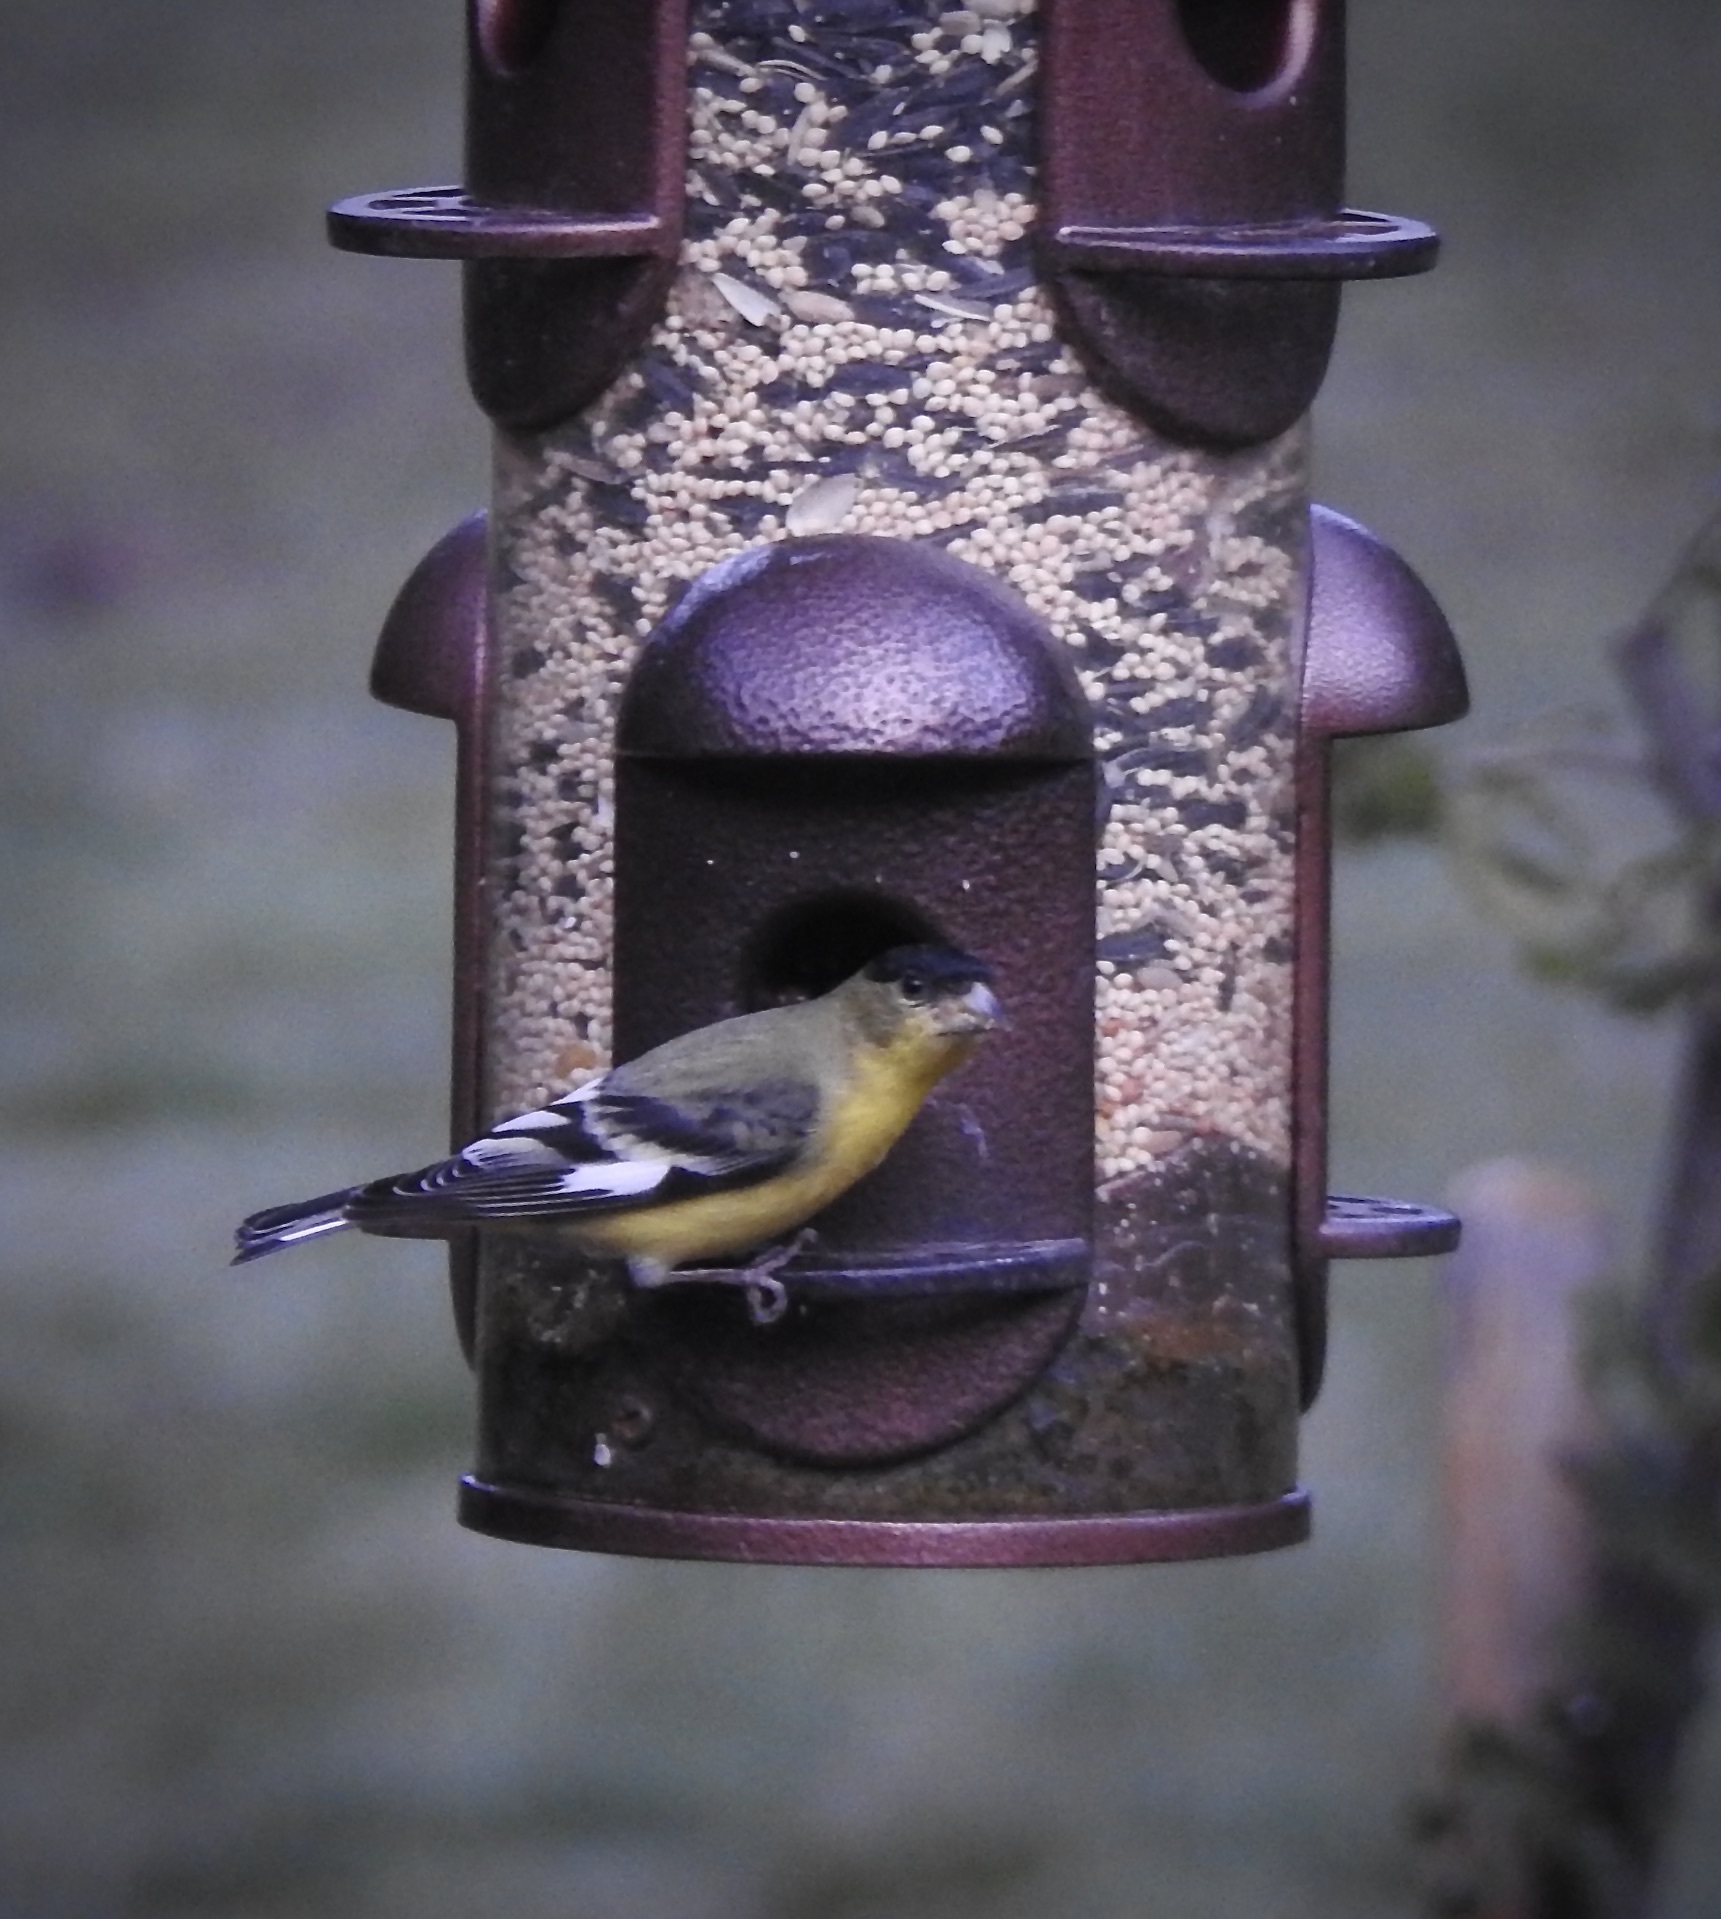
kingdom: Animalia
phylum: Chordata
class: Aves
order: Passeriformes
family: Fringillidae
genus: Spinus
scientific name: Spinus psaltria
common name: Lesser goldfinch
